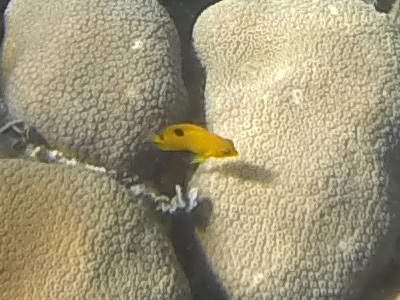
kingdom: Animalia
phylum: Chordata
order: Perciformes
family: Pomacentridae
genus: Stegastes
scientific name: Stegastes planifrons
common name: Threespot damselfish
